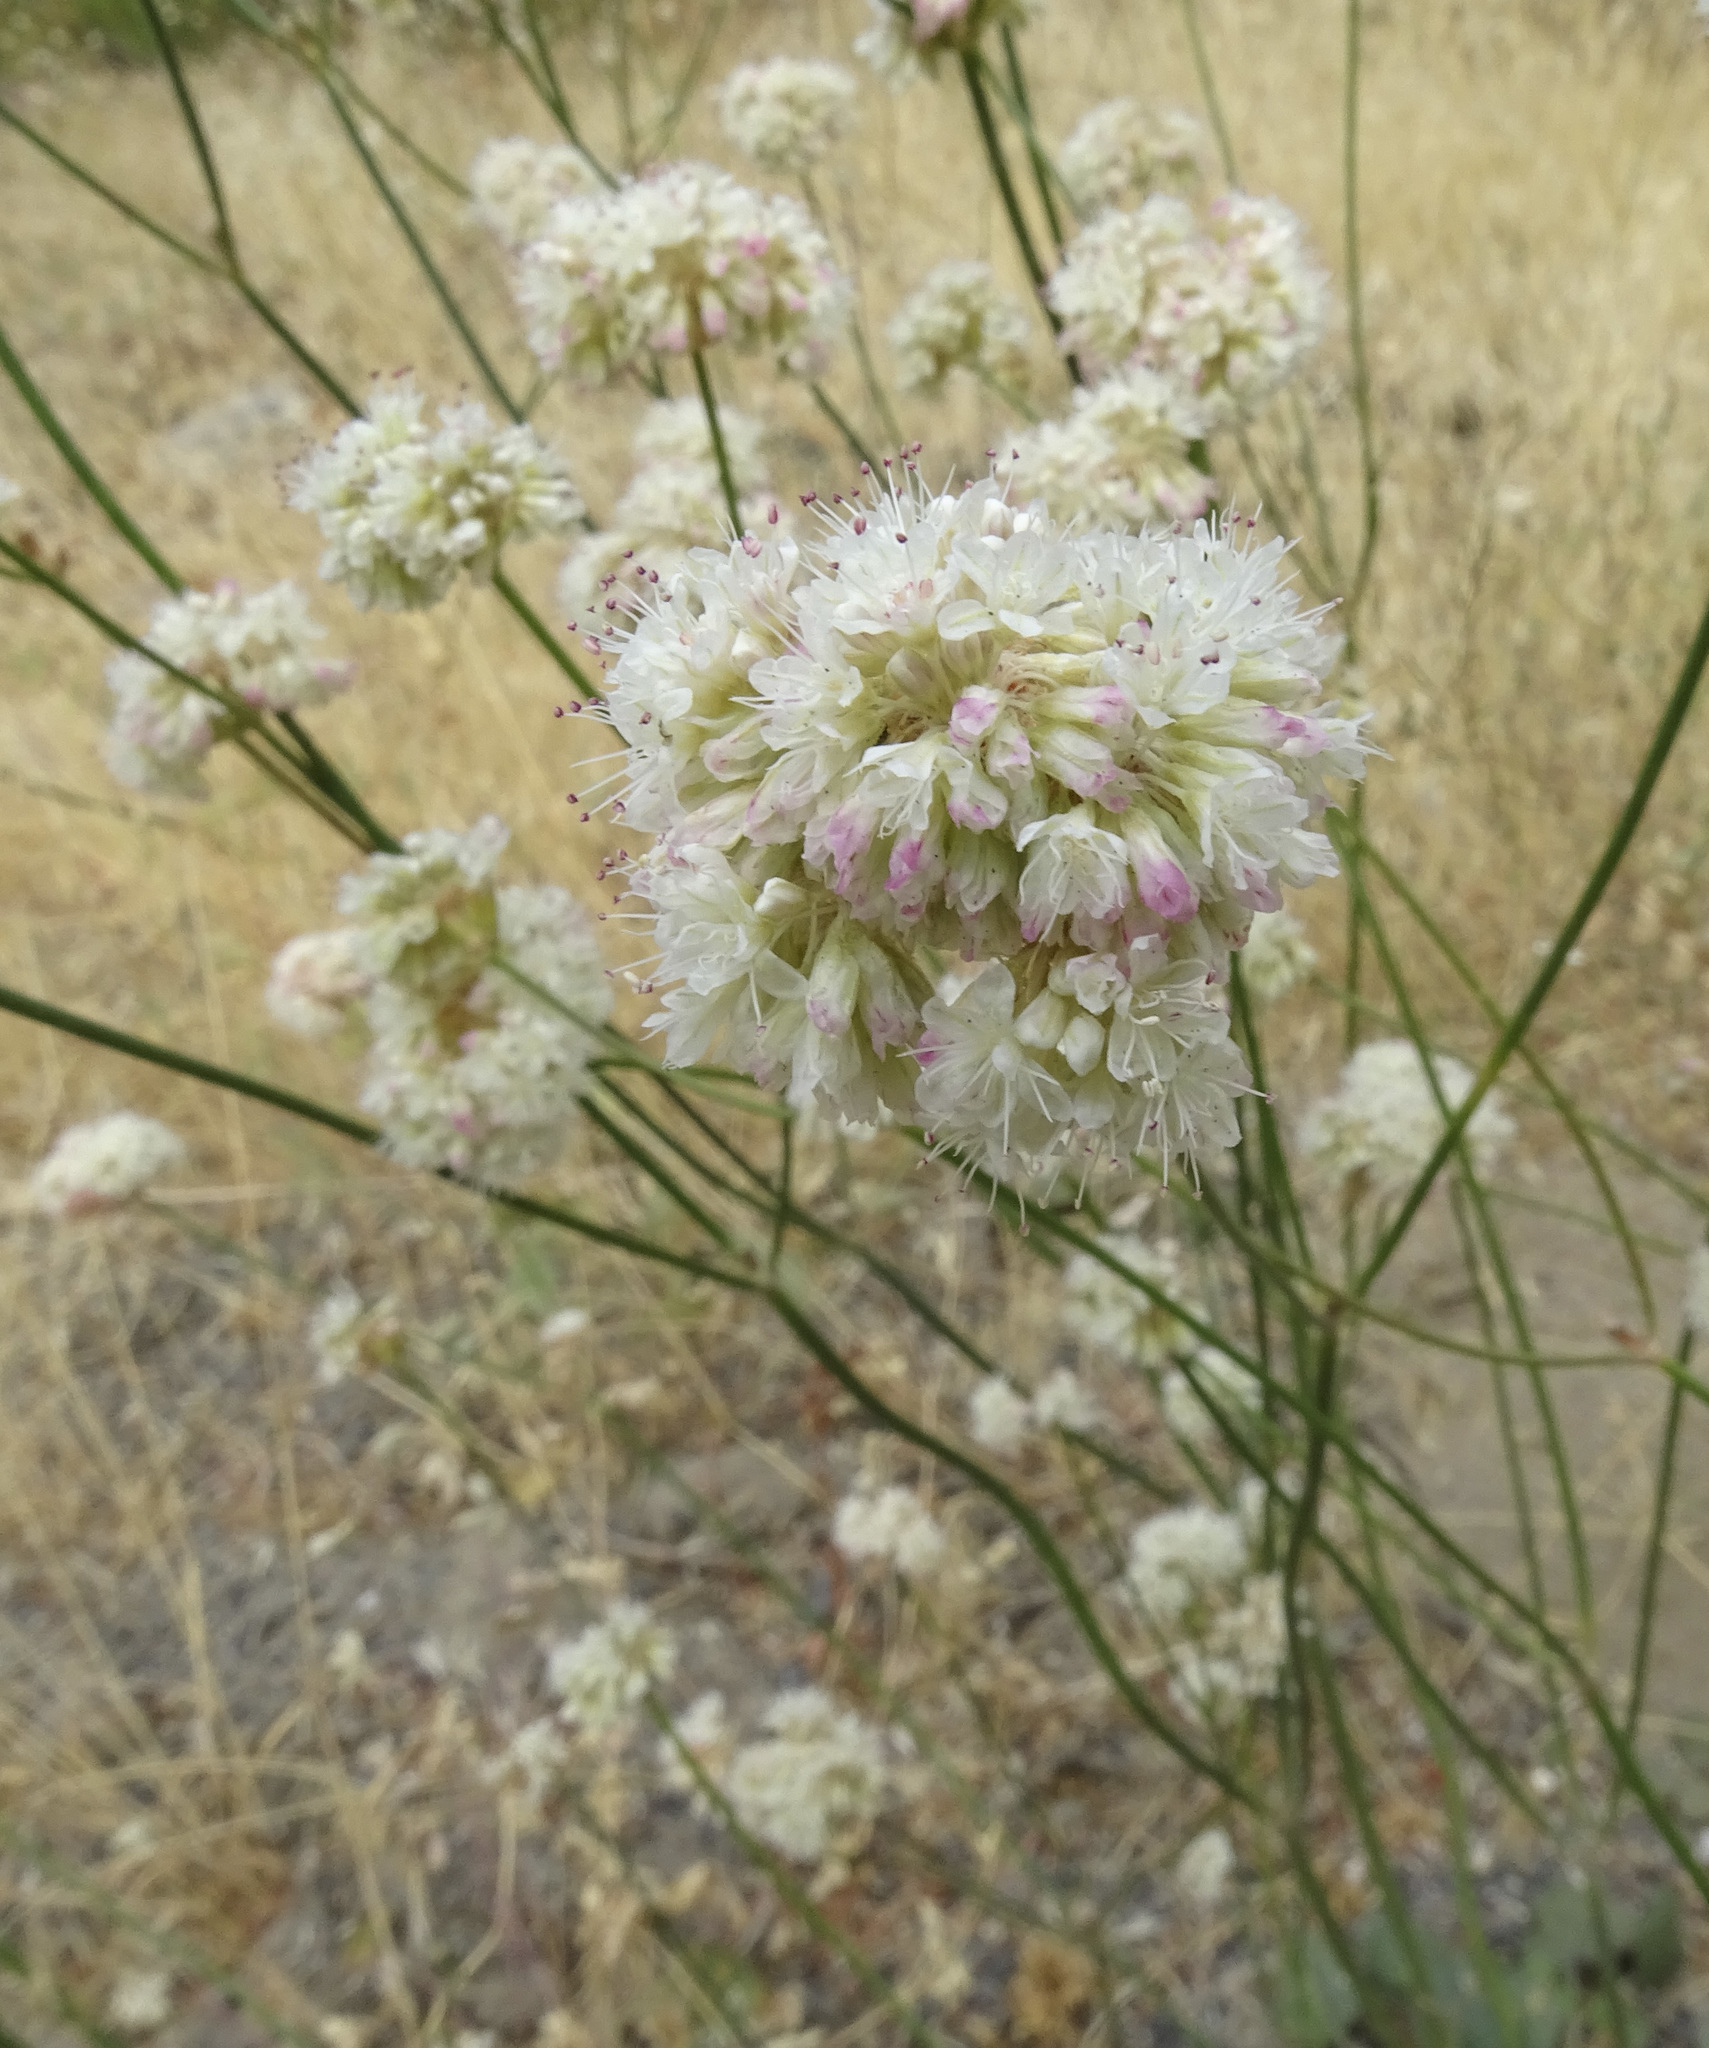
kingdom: Plantae
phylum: Tracheophyta
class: Magnoliopsida
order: Caryophyllales
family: Polygonaceae
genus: Eriogonum
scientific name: Eriogonum nudum
